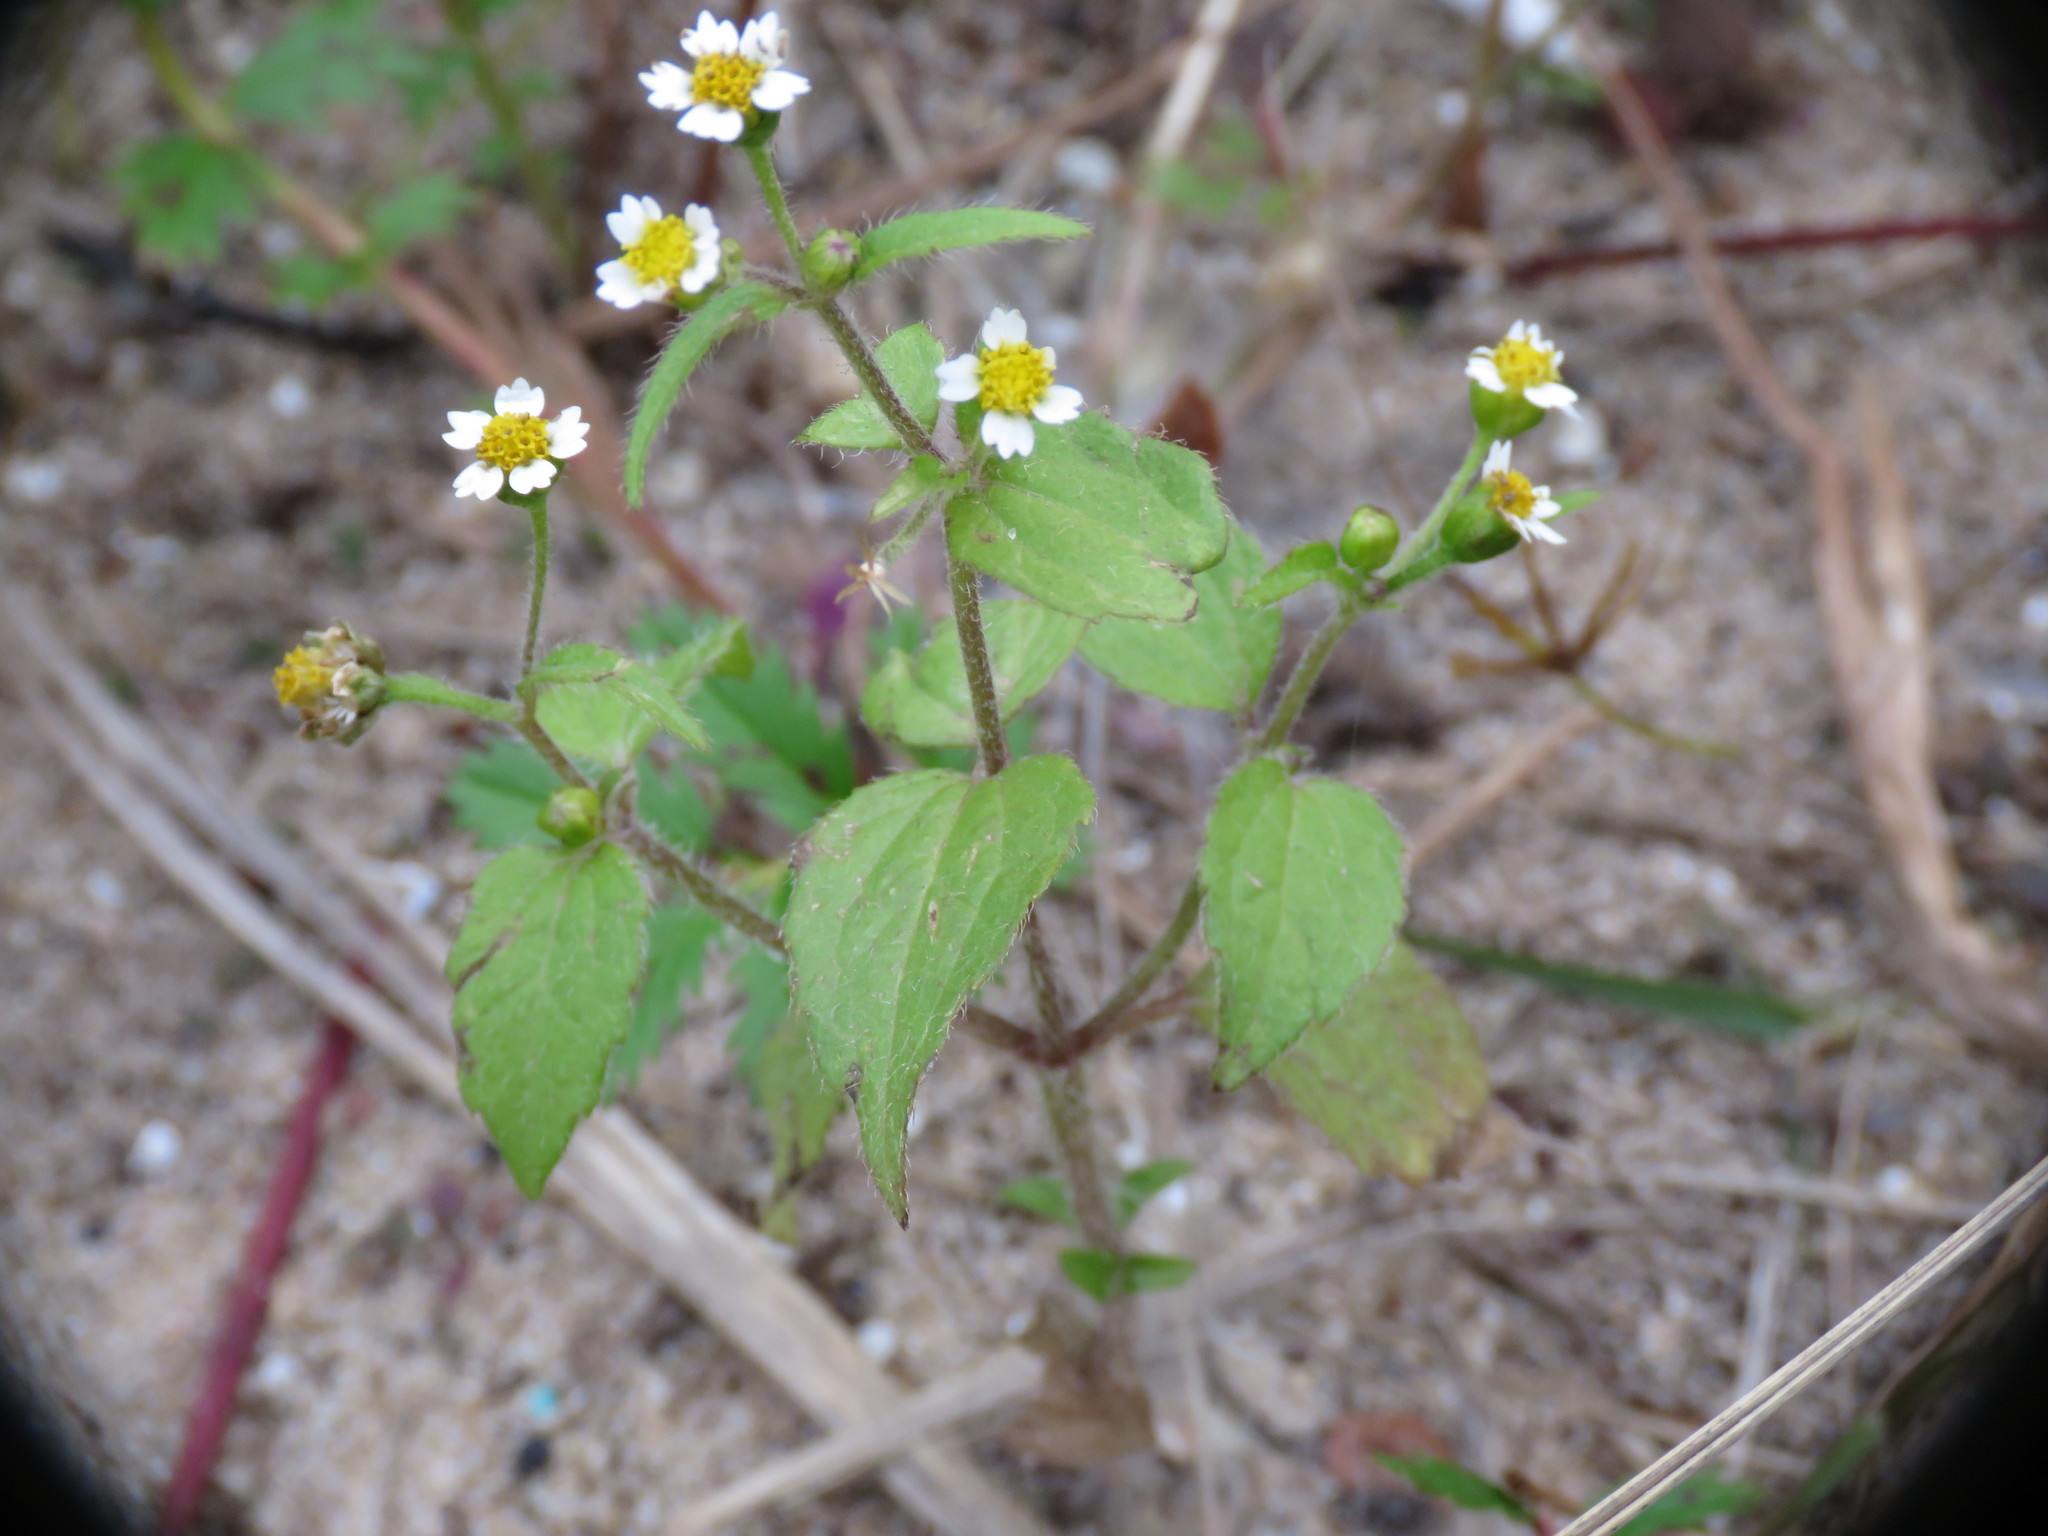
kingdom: Plantae
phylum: Tracheophyta
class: Magnoliopsida
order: Asterales
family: Asteraceae
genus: Galinsoga
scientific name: Galinsoga quadriradiata
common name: Shaggy soldier
